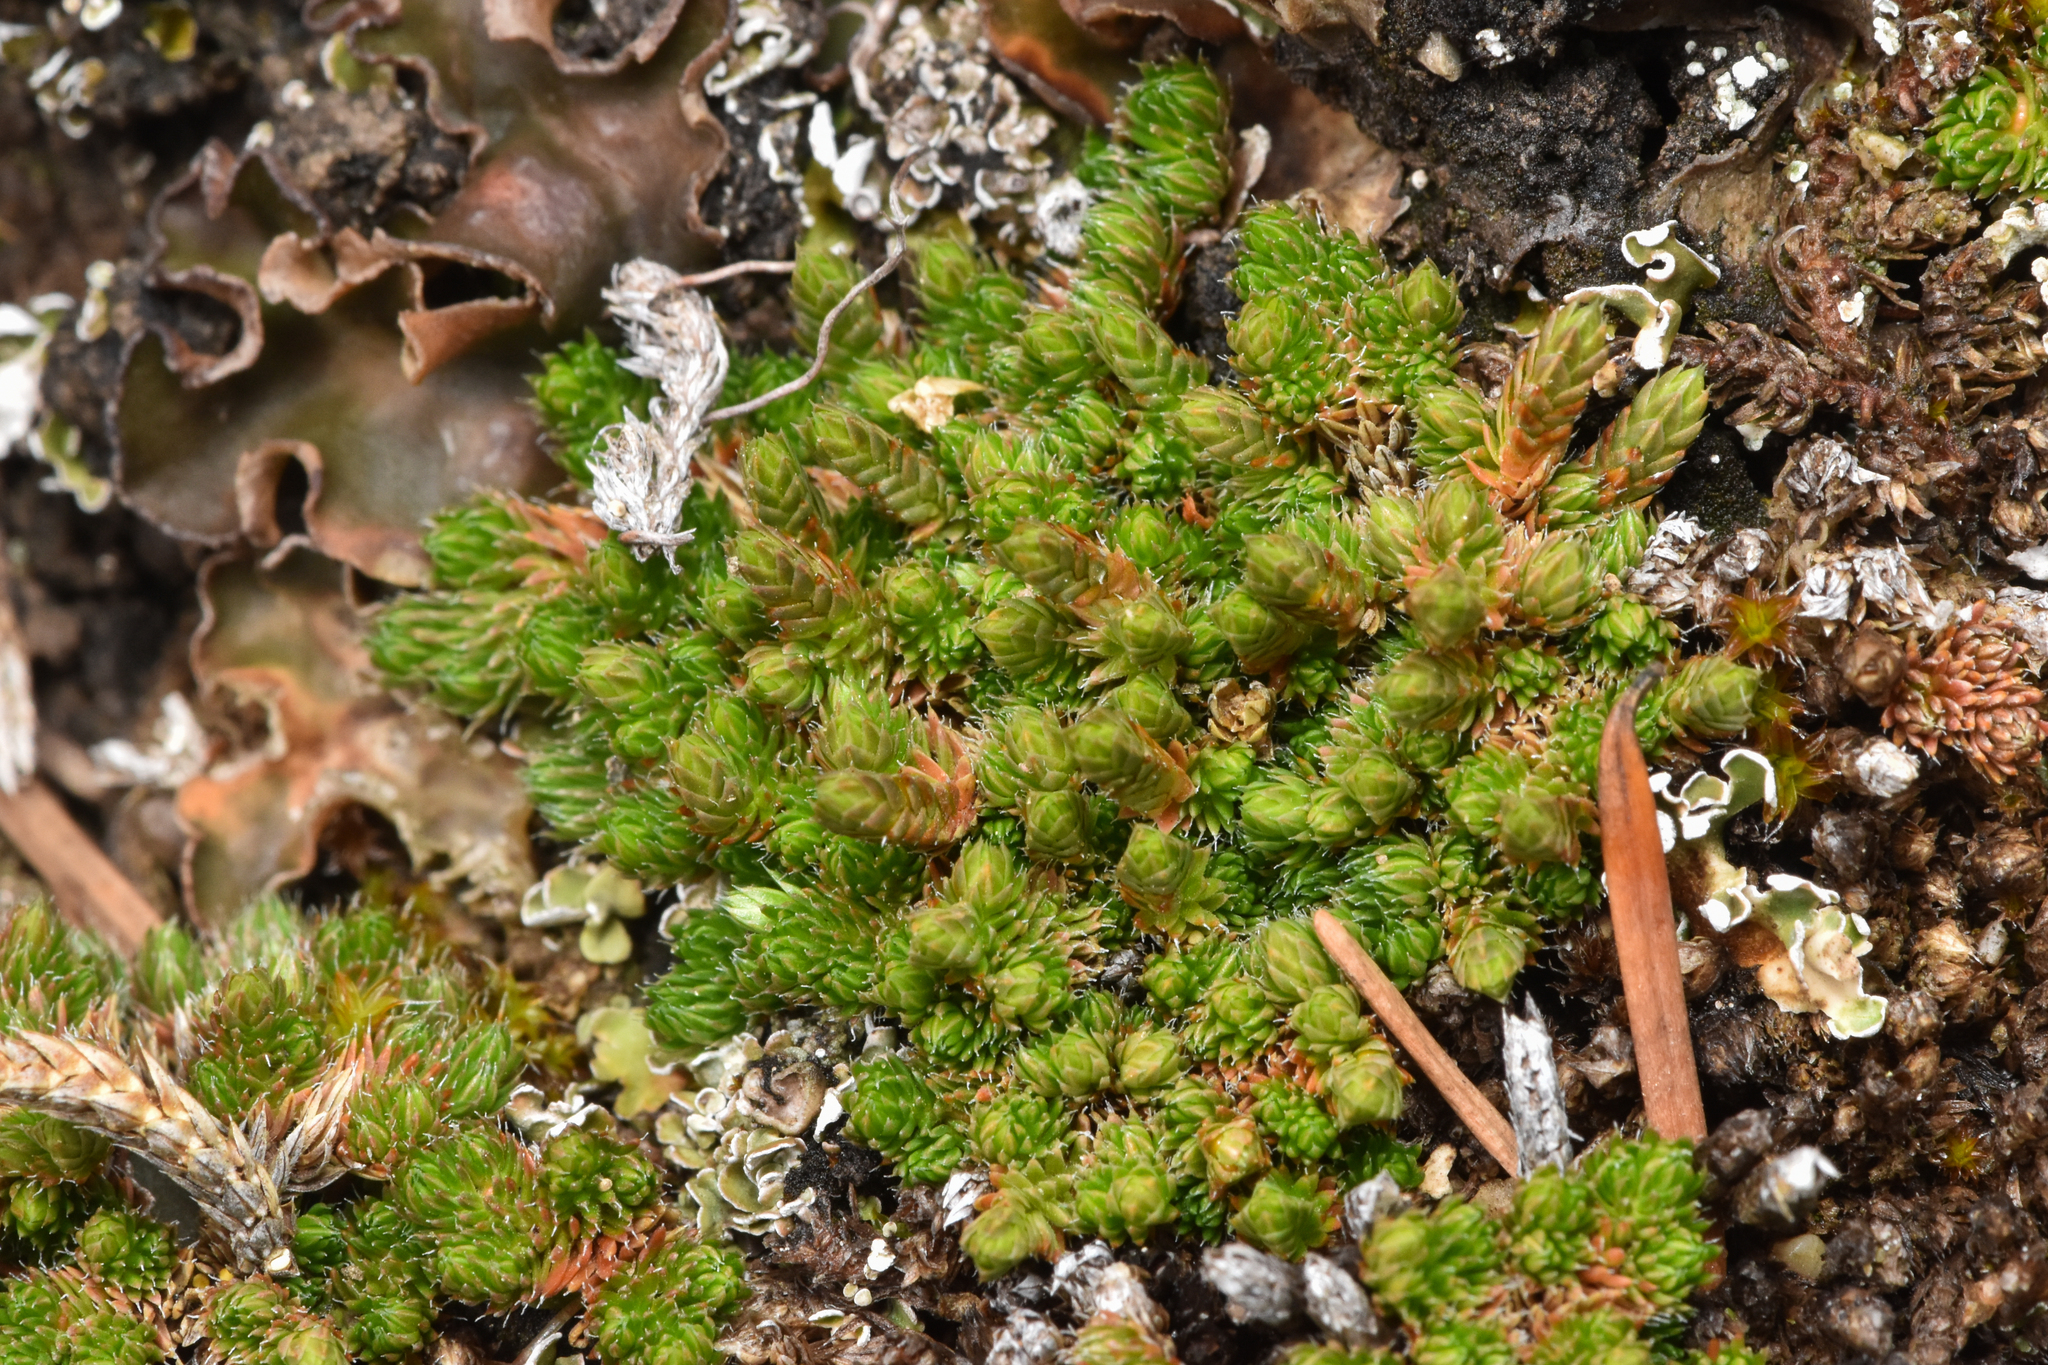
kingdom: Plantae
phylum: Tracheophyta
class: Lycopodiopsida
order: Selaginellales
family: Selaginellaceae
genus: Selaginella
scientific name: Selaginella densa
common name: Mountain spike-moss
